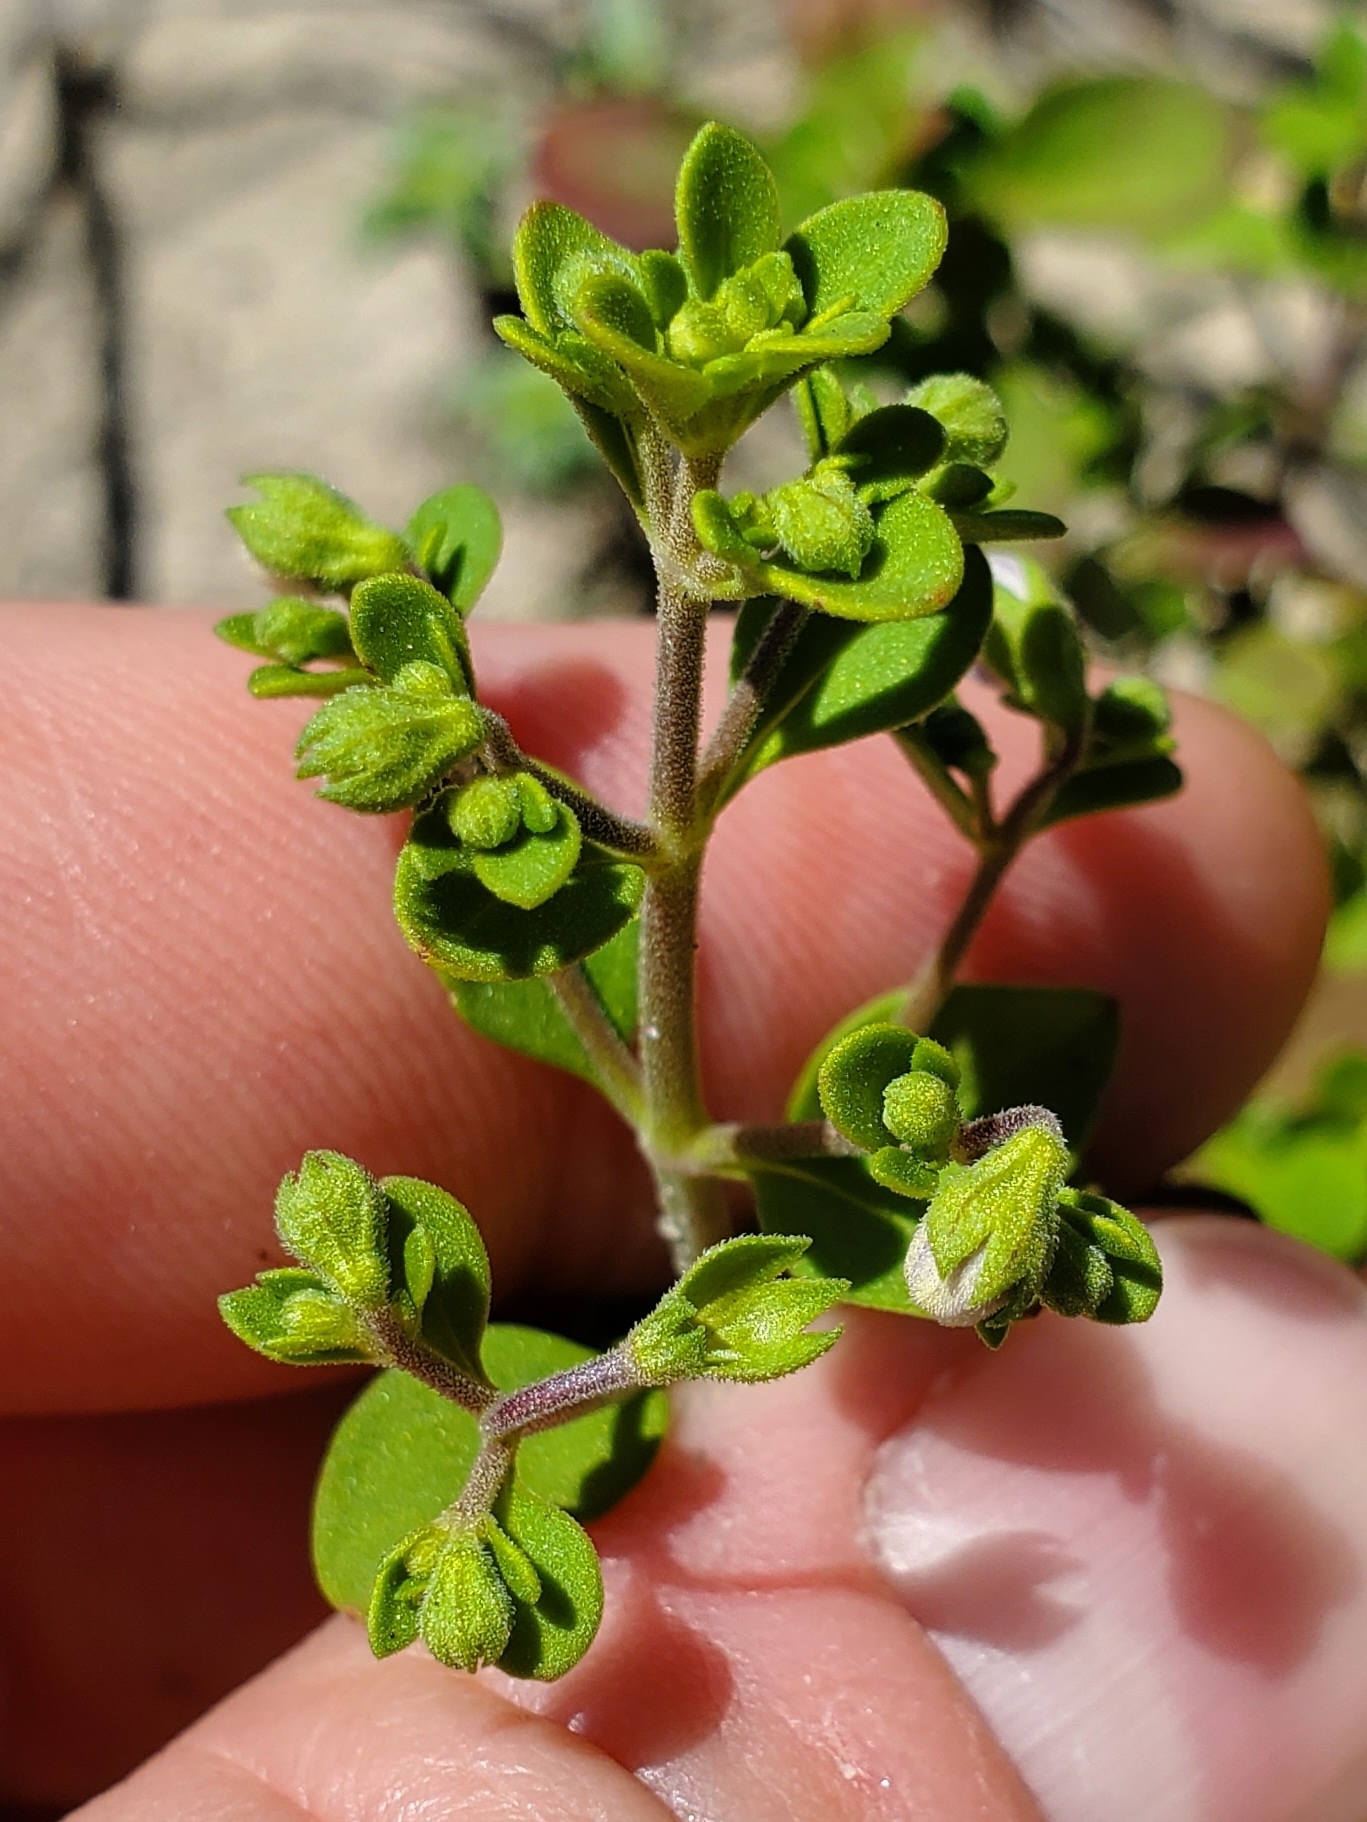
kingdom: Plantae
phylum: Tracheophyta
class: Magnoliopsida
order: Lamiales
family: Lamiaceae
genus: Trichostema
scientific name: Trichostema nesophilum
